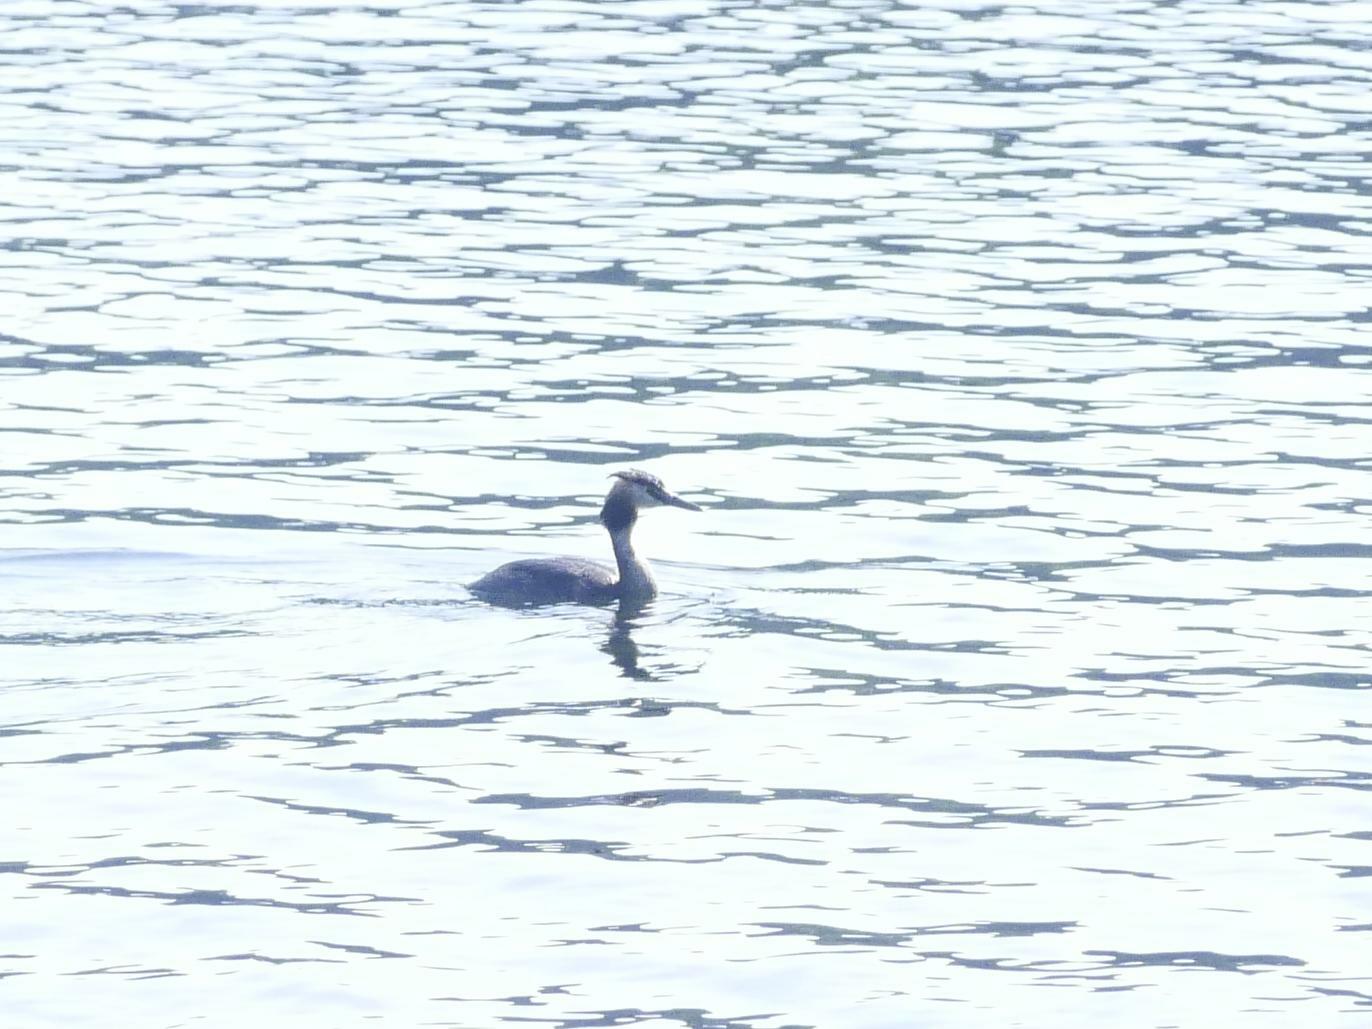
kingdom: Animalia
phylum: Chordata
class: Aves
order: Podicipediformes
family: Podicipedidae
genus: Podiceps
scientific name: Podiceps cristatus
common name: Great crested grebe
